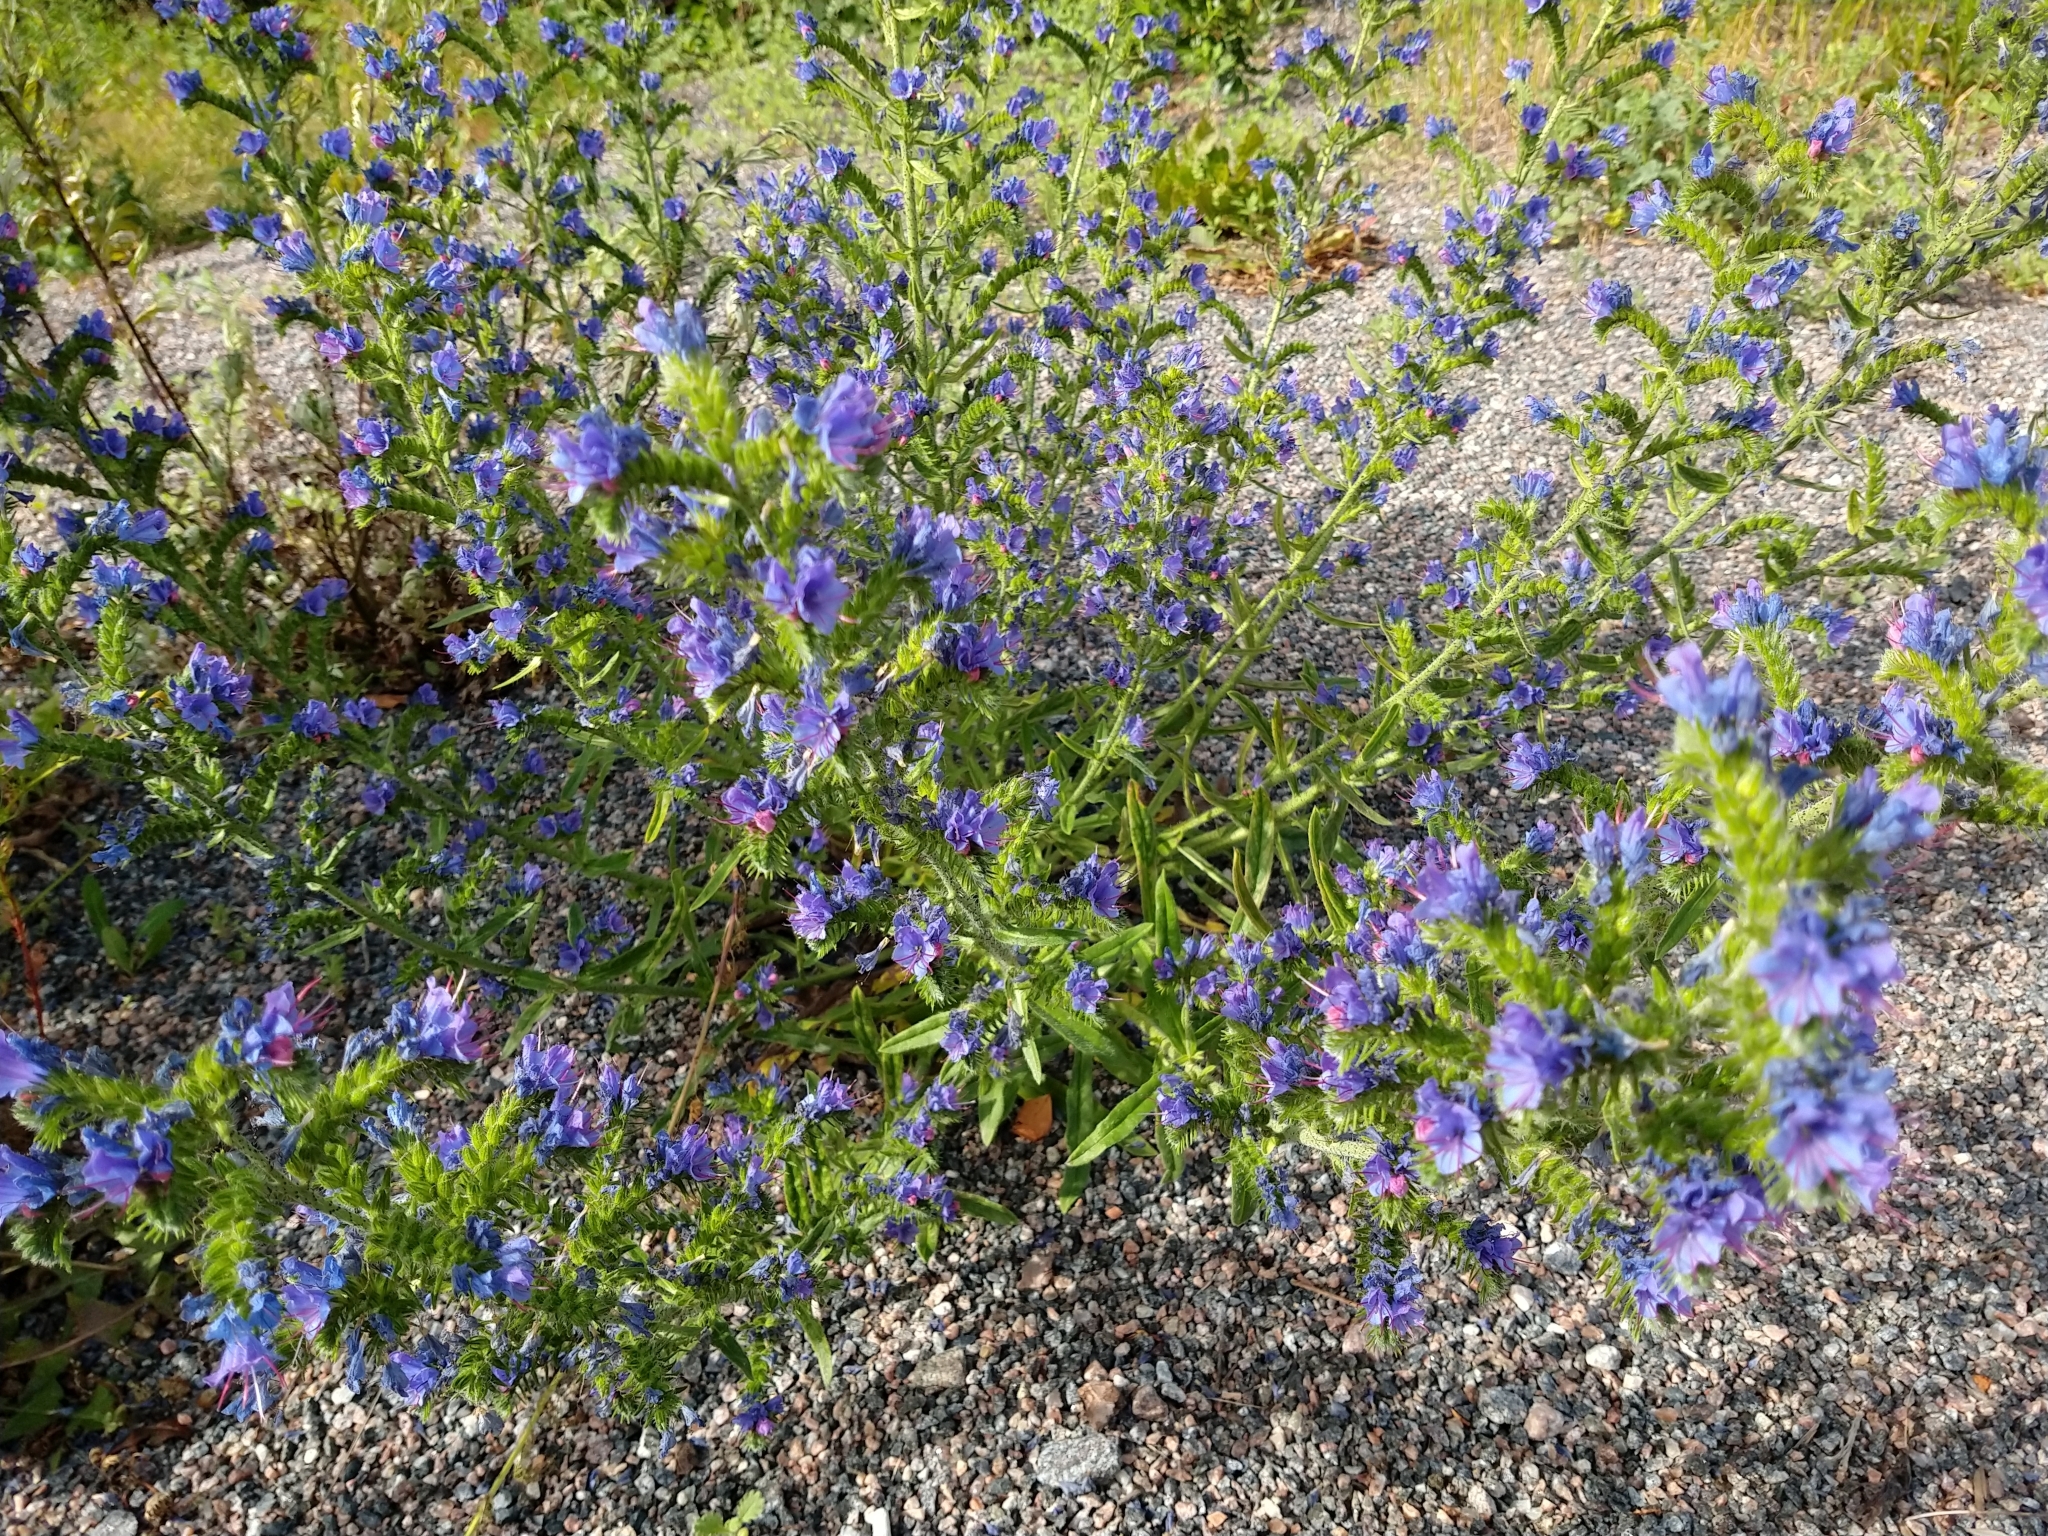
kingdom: Plantae
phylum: Tracheophyta
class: Magnoliopsida
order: Boraginales
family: Boraginaceae
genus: Echium
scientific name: Echium vulgare
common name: Common viper's bugloss
